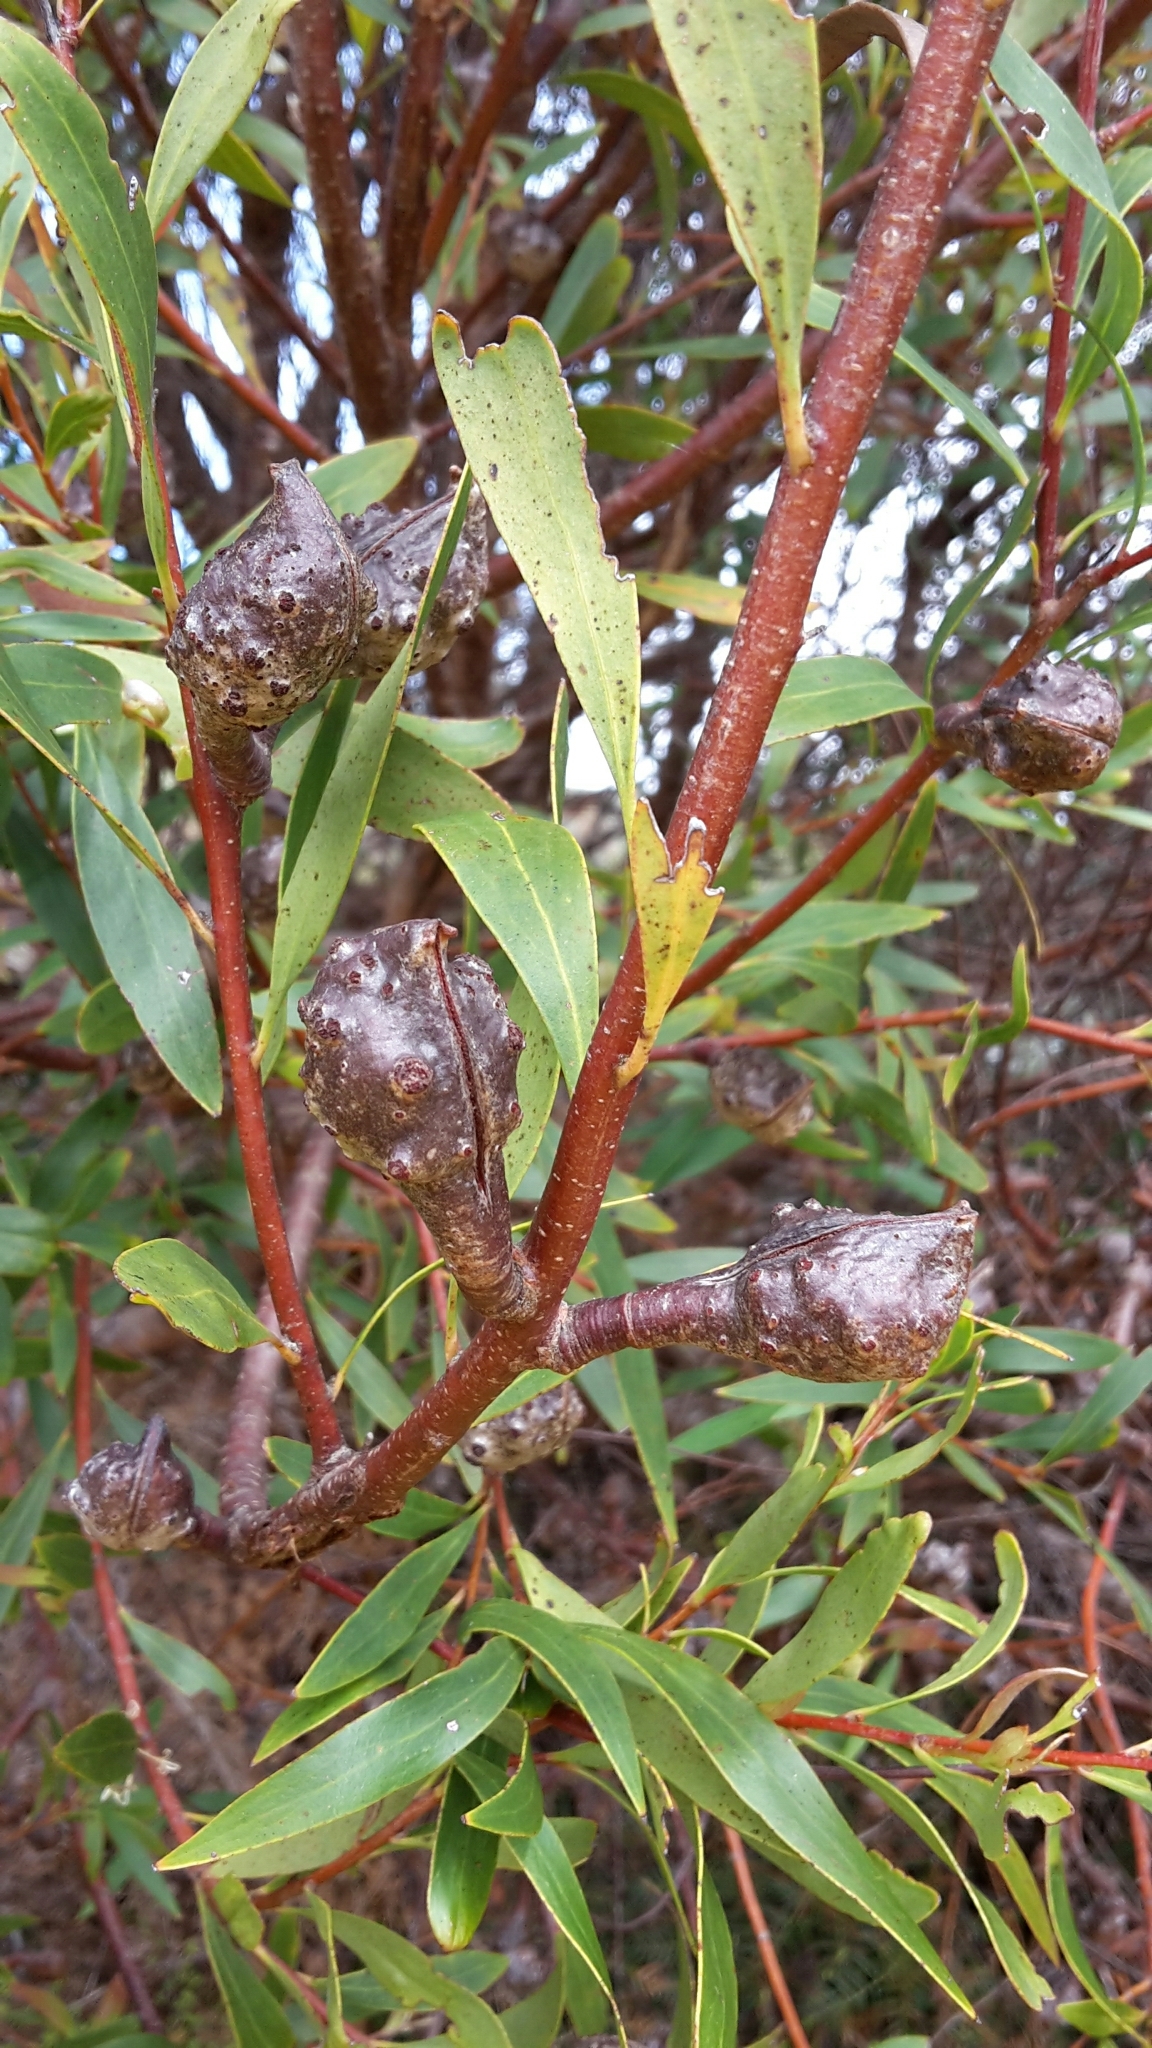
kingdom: Plantae
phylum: Tracheophyta
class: Magnoliopsida
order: Proteales
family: Proteaceae
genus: Hakea
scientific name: Hakea salicifolia
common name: Willow hakea
